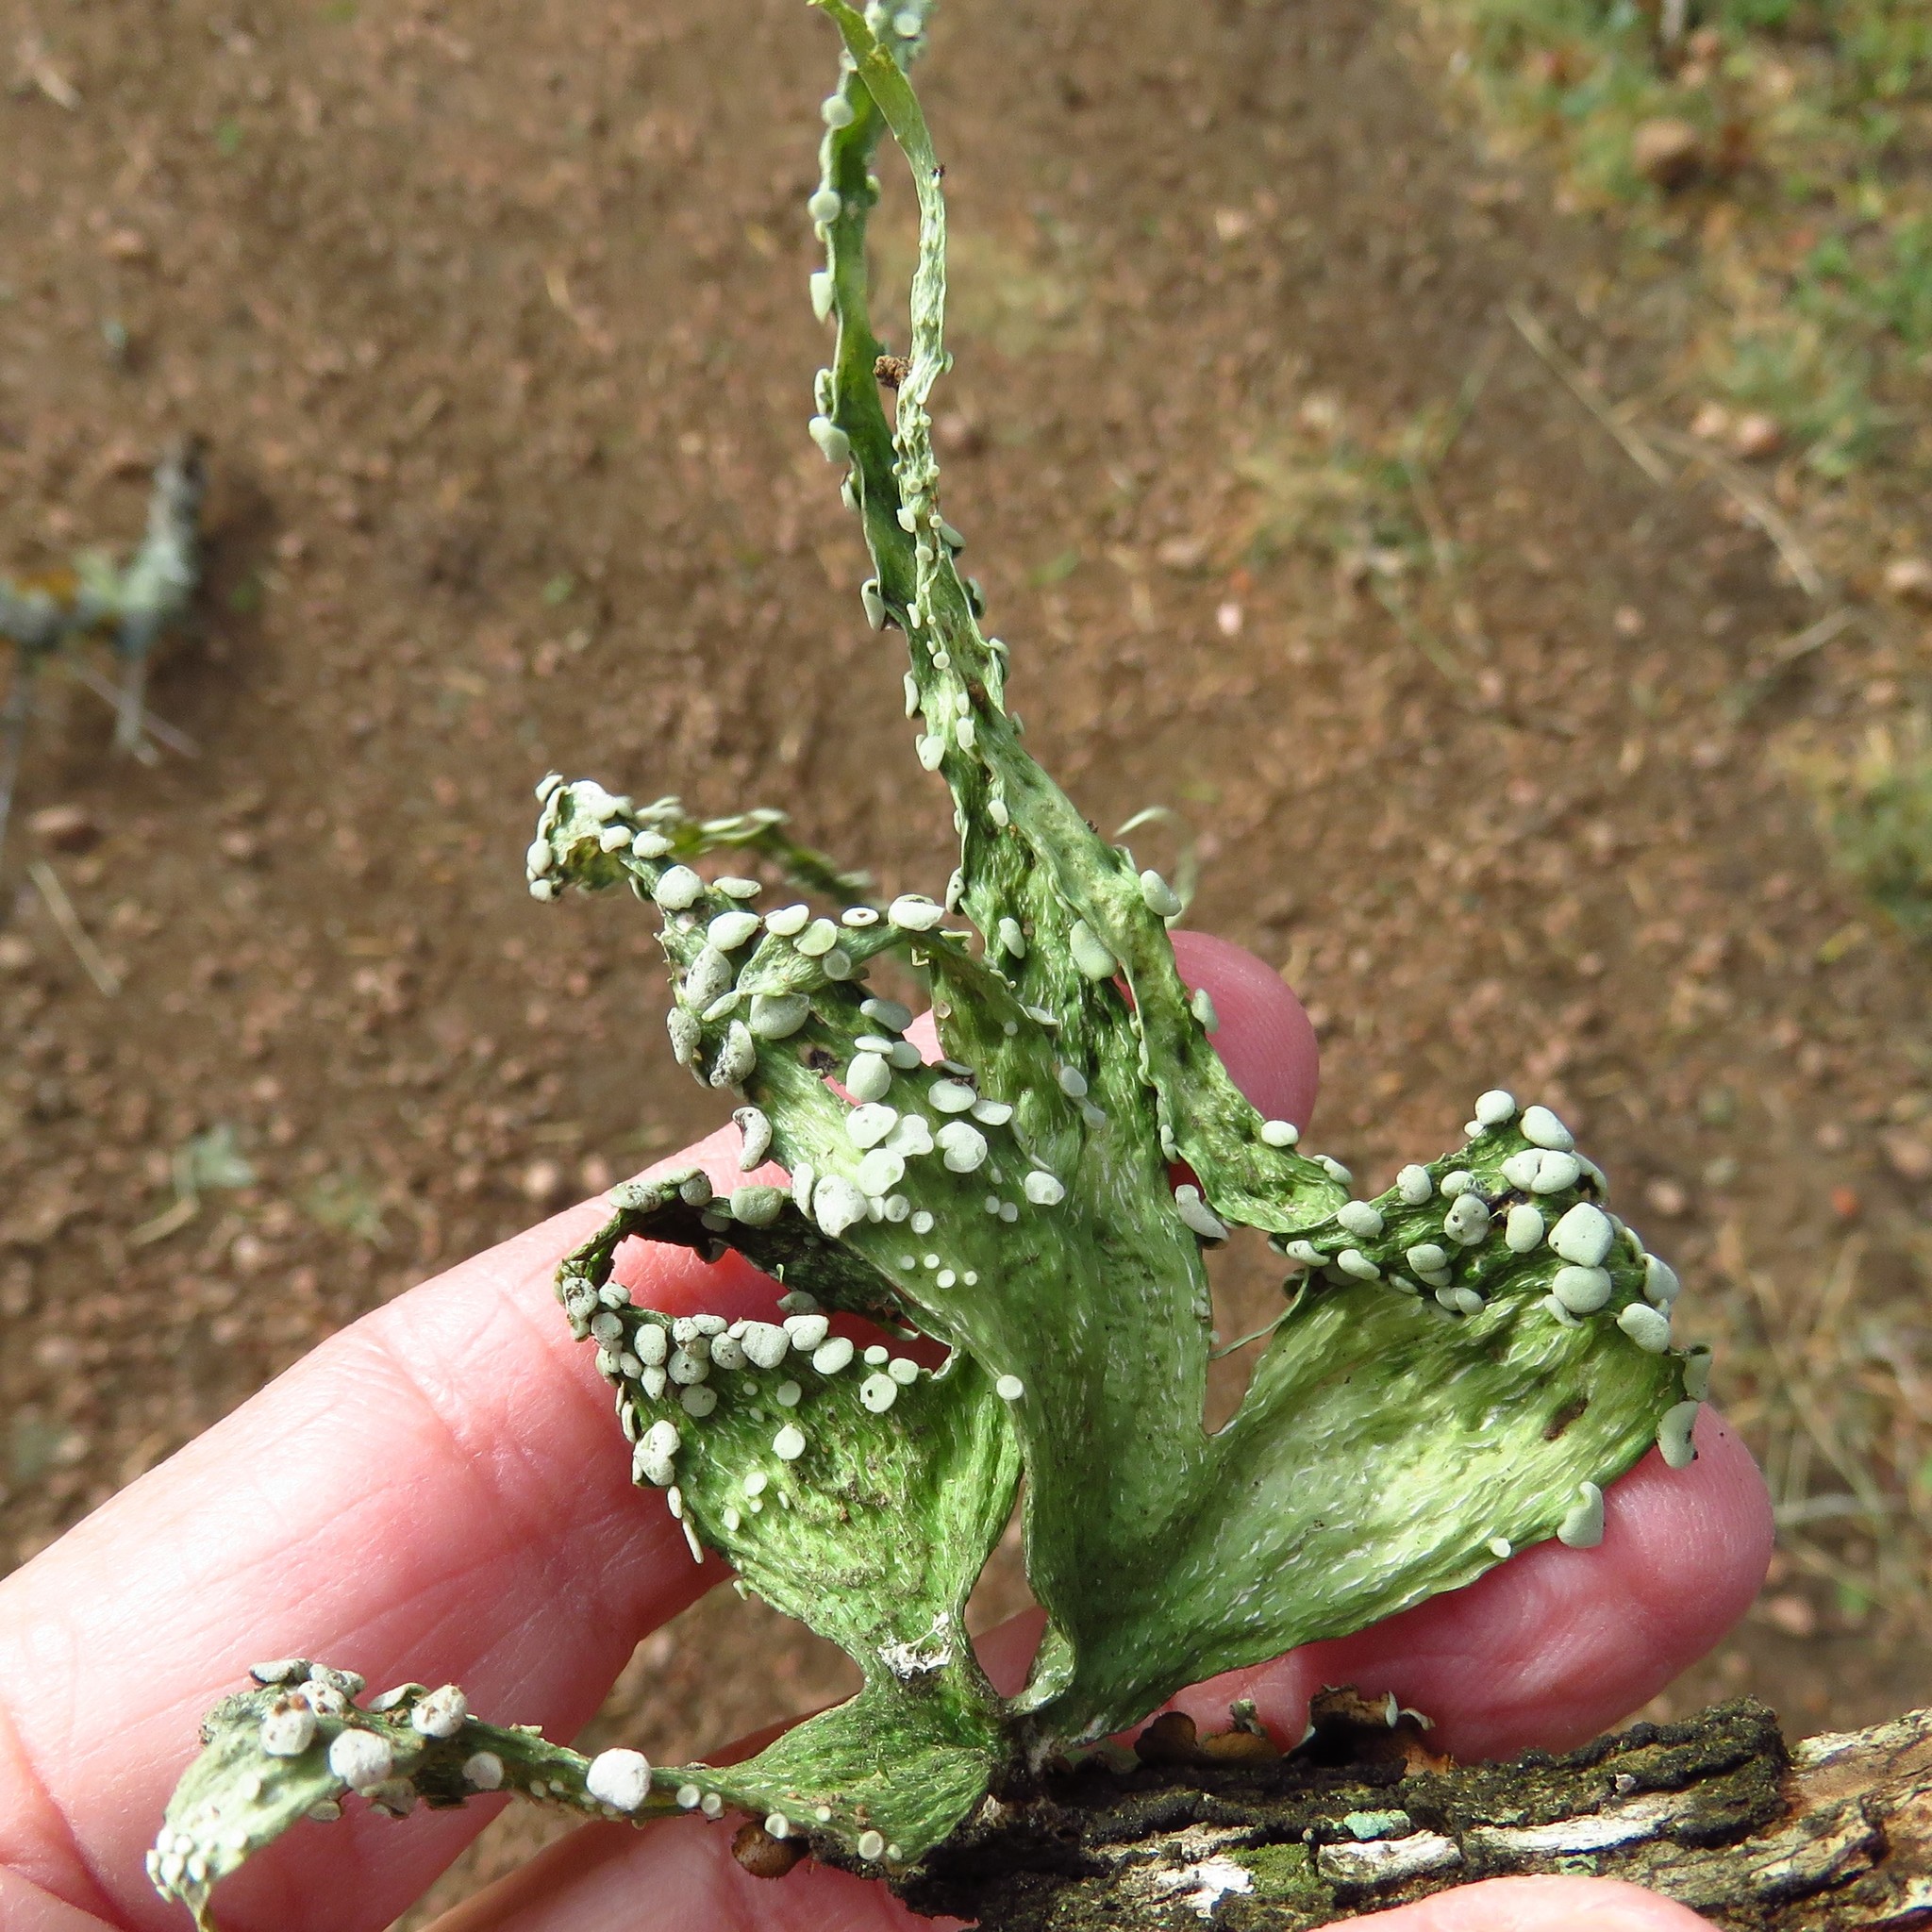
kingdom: Fungi
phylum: Ascomycota
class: Lecanoromycetes
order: Lecanorales
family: Ramalinaceae
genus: Ramalina
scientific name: Ramalina celastri
